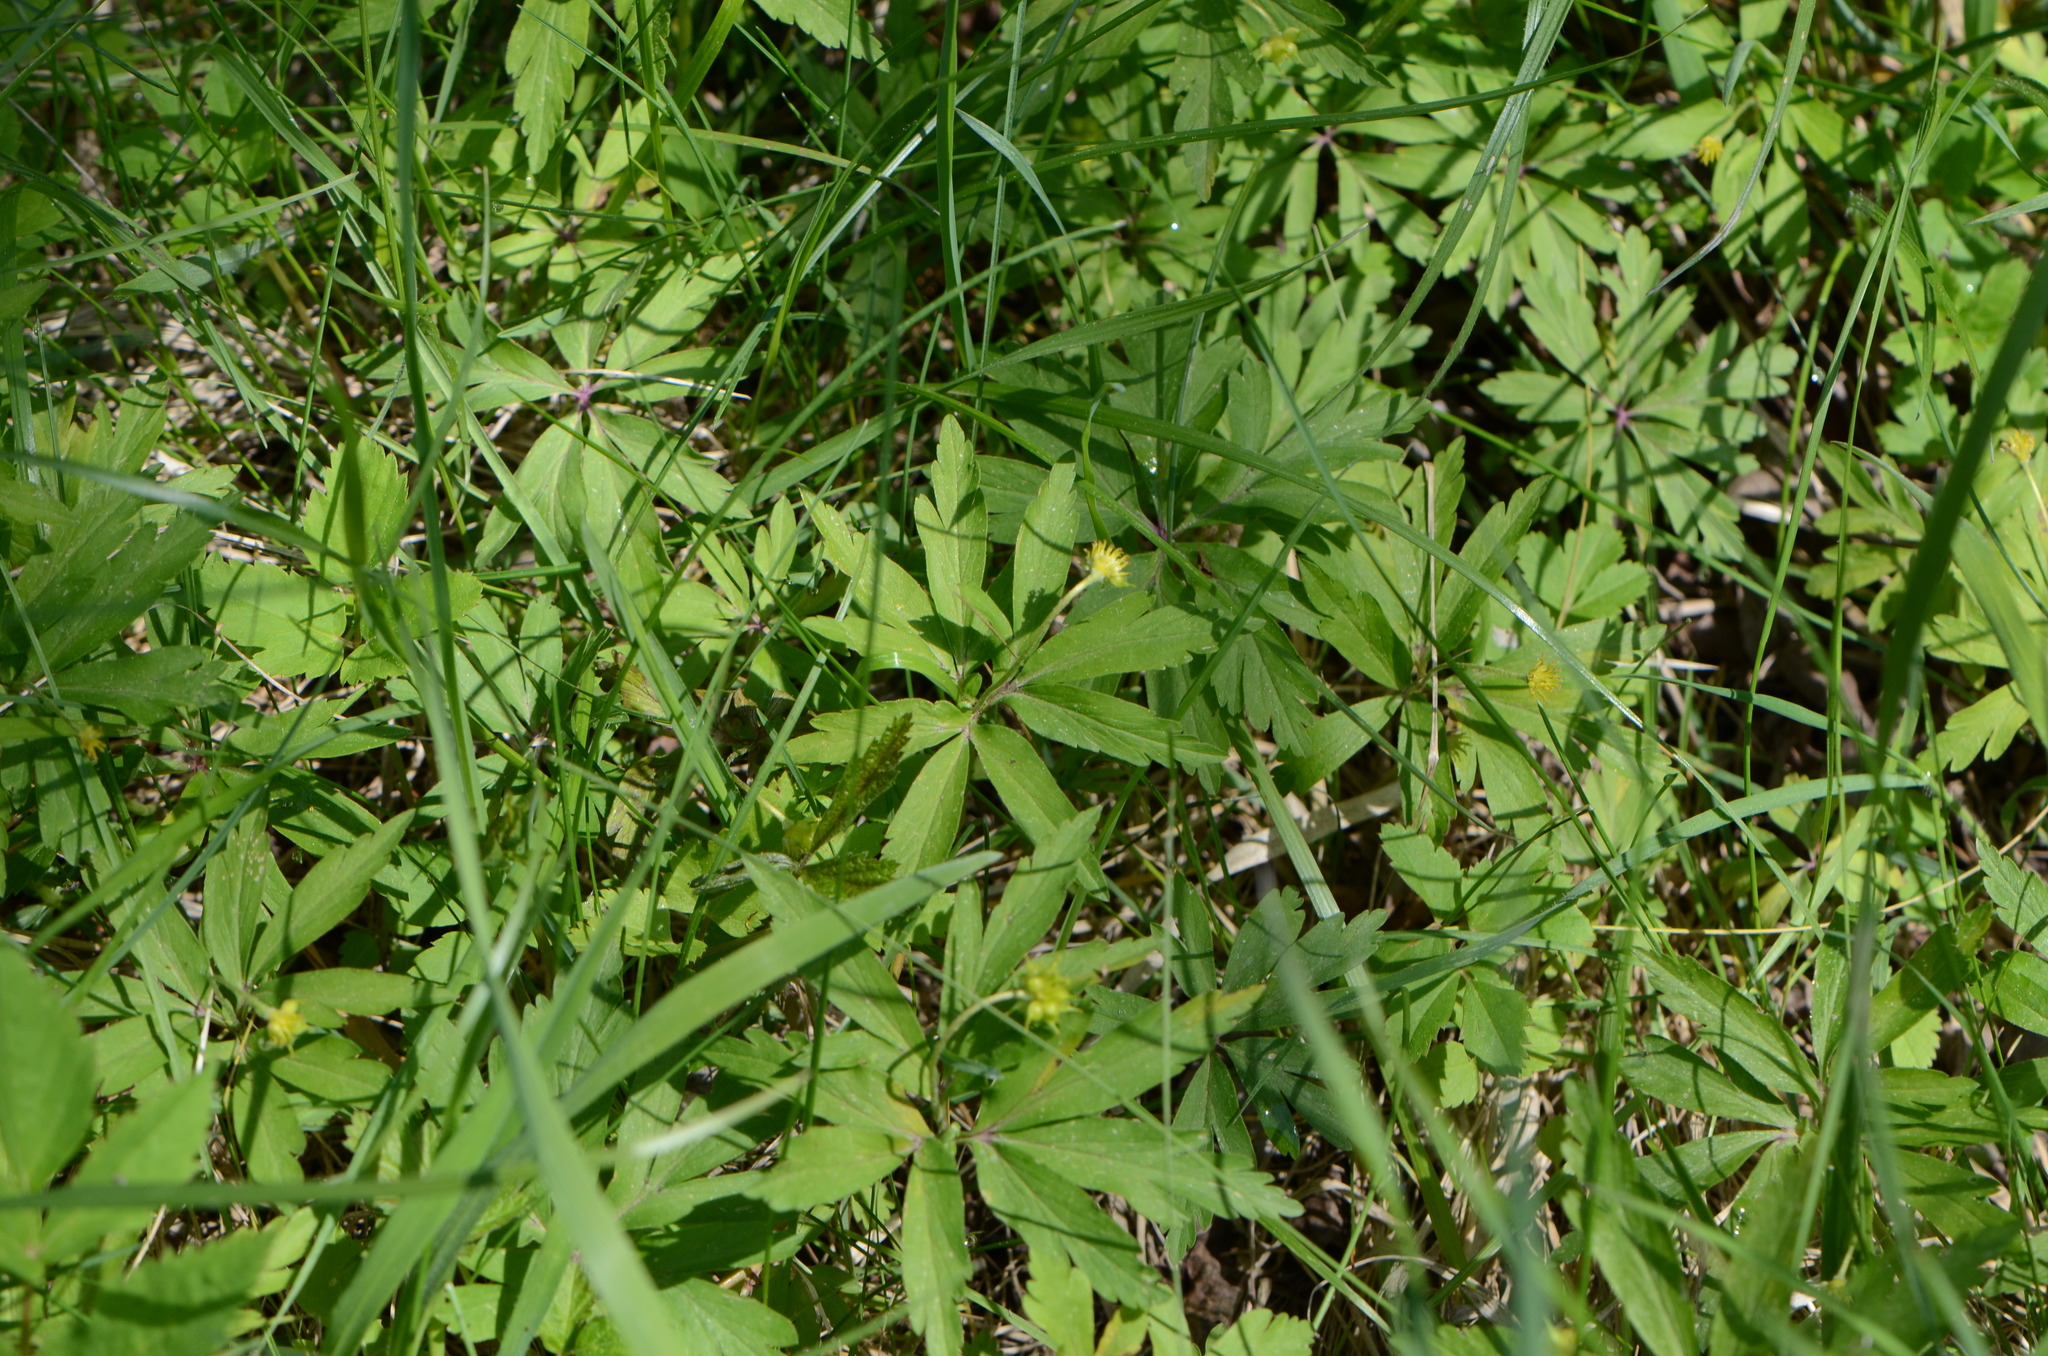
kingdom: Plantae
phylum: Tracheophyta
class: Magnoliopsida
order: Ranunculales
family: Ranunculaceae
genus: Anemone
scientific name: Anemone ranunculoides
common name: Yellow anemone
